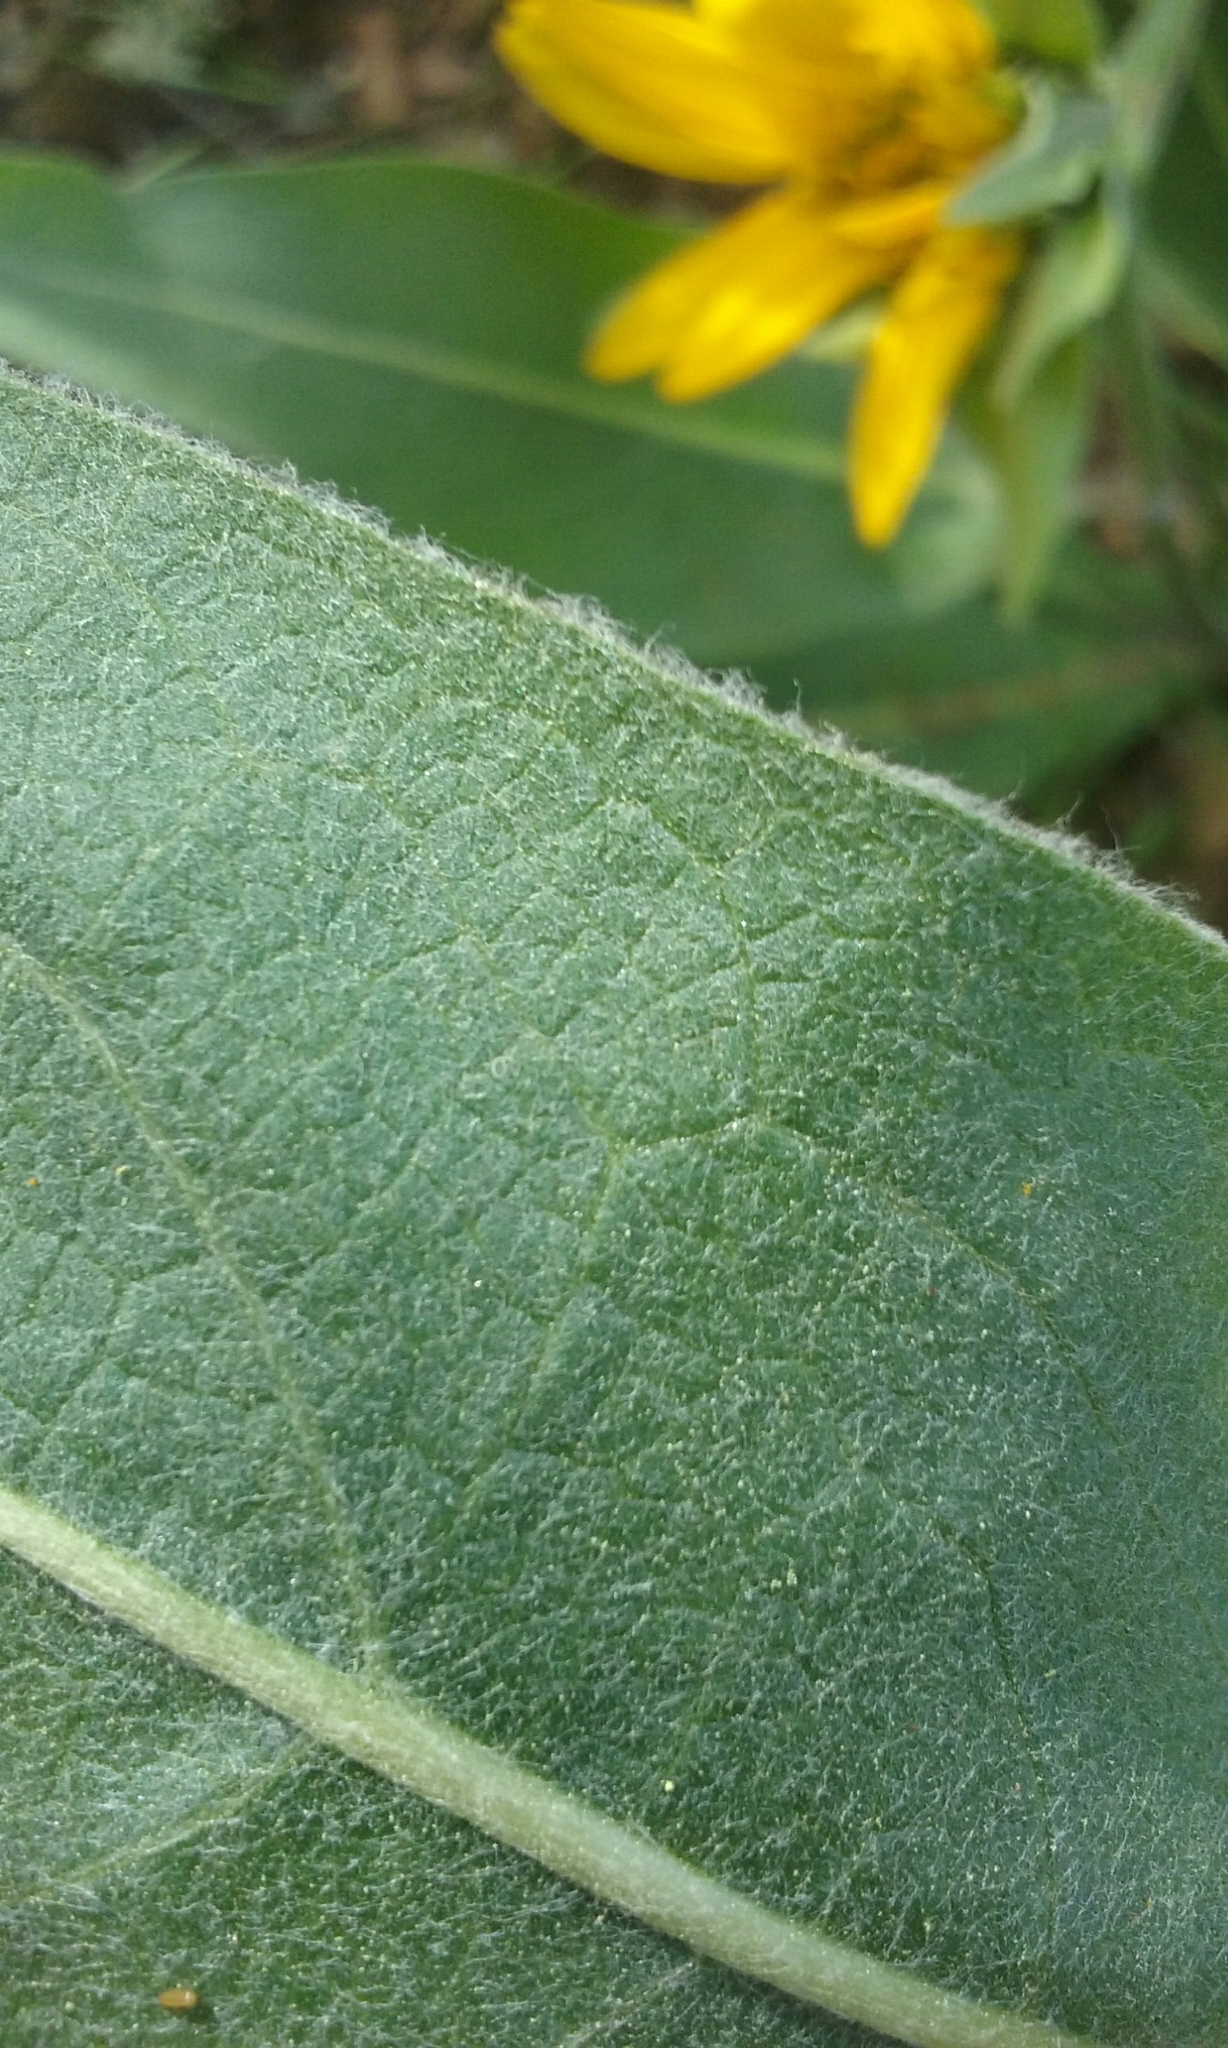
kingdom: Plantae
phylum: Tracheophyta
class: Magnoliopsida
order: Asterales
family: Asteraceae
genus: Wyethia
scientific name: Wyethia helenioides
